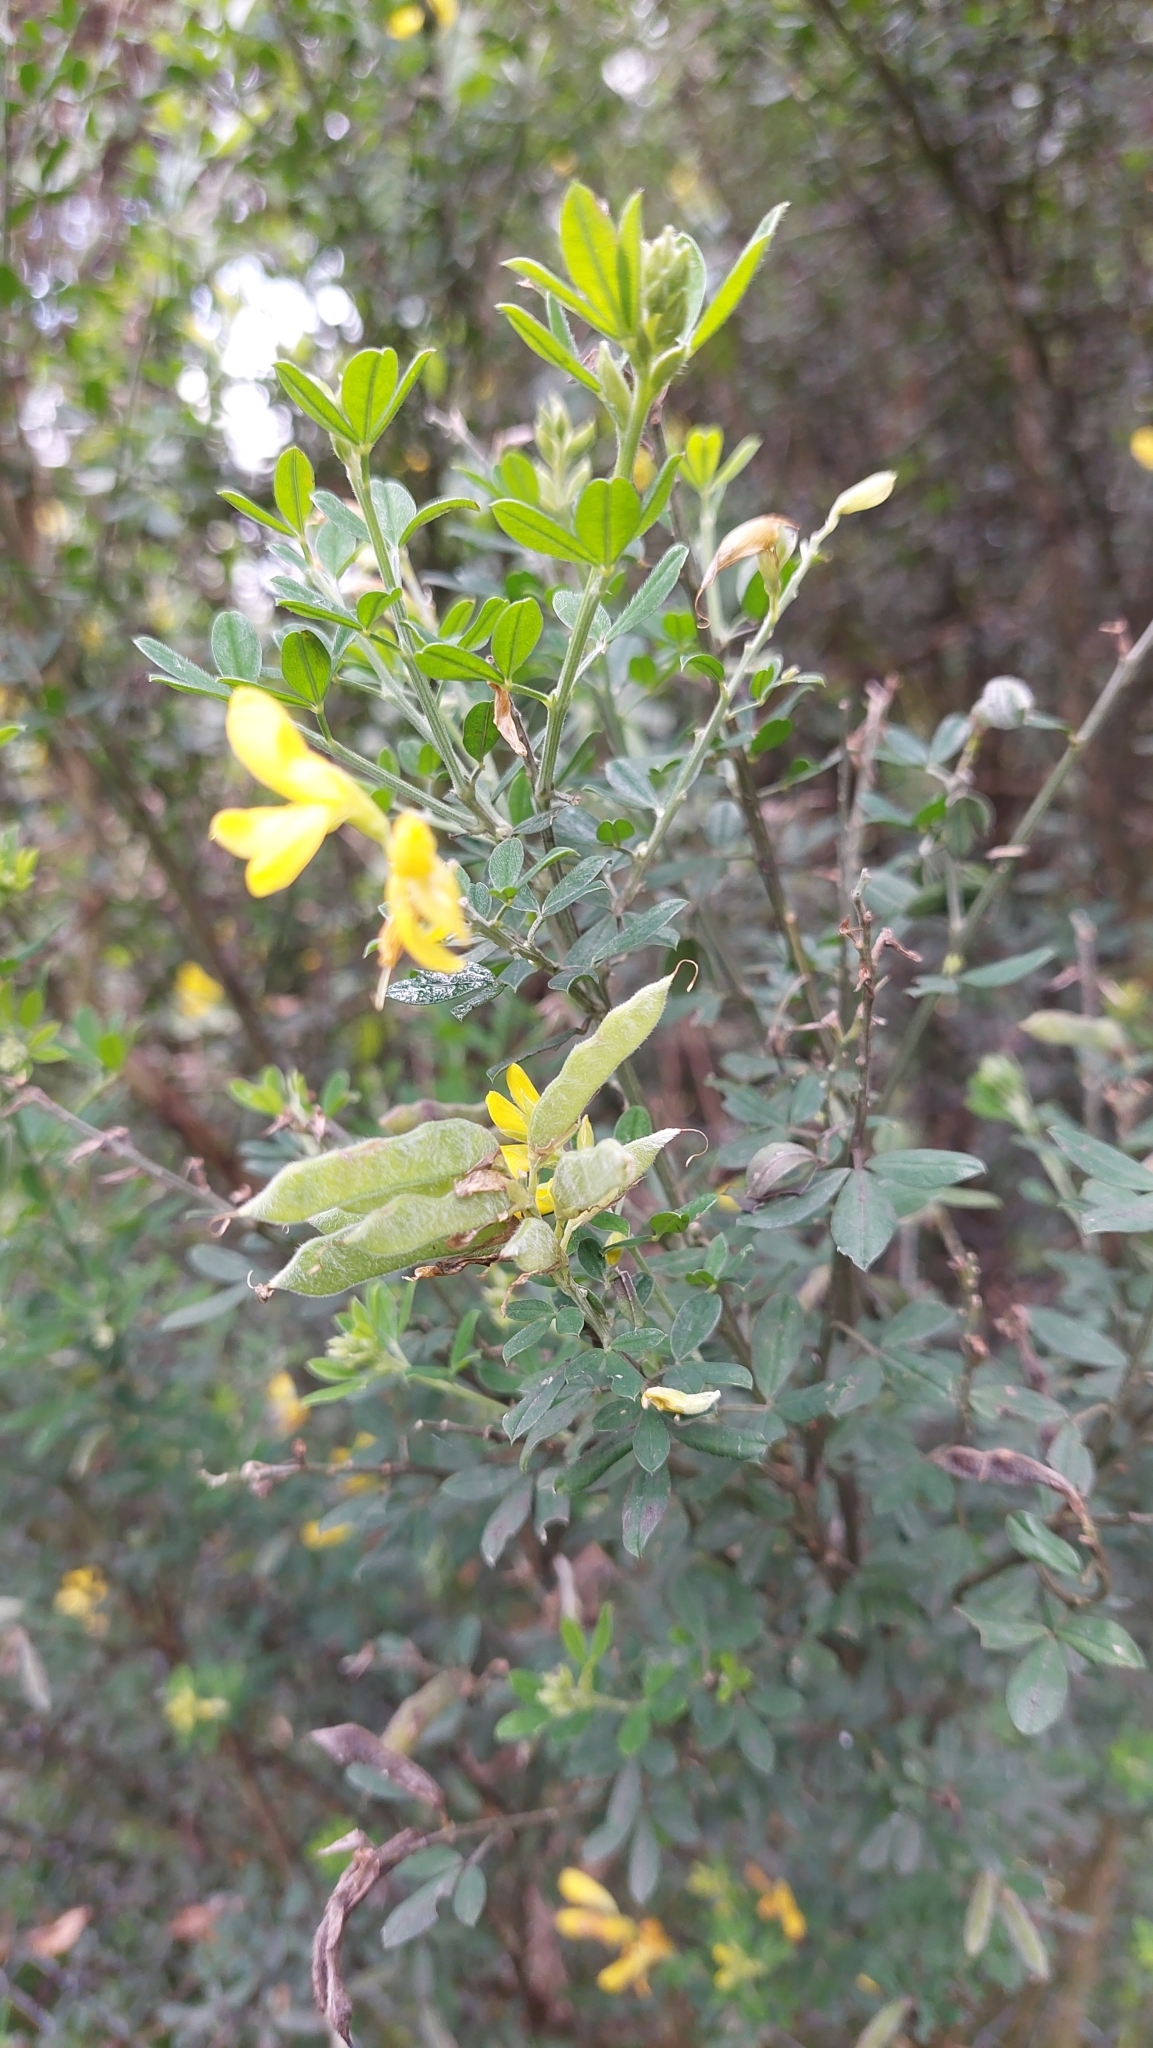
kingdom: Plantae
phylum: Tracheophyta
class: Magnoliopsida
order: Fabales
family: Fabaceae
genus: Genista
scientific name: Genista monspessulana
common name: Montpellier broom
